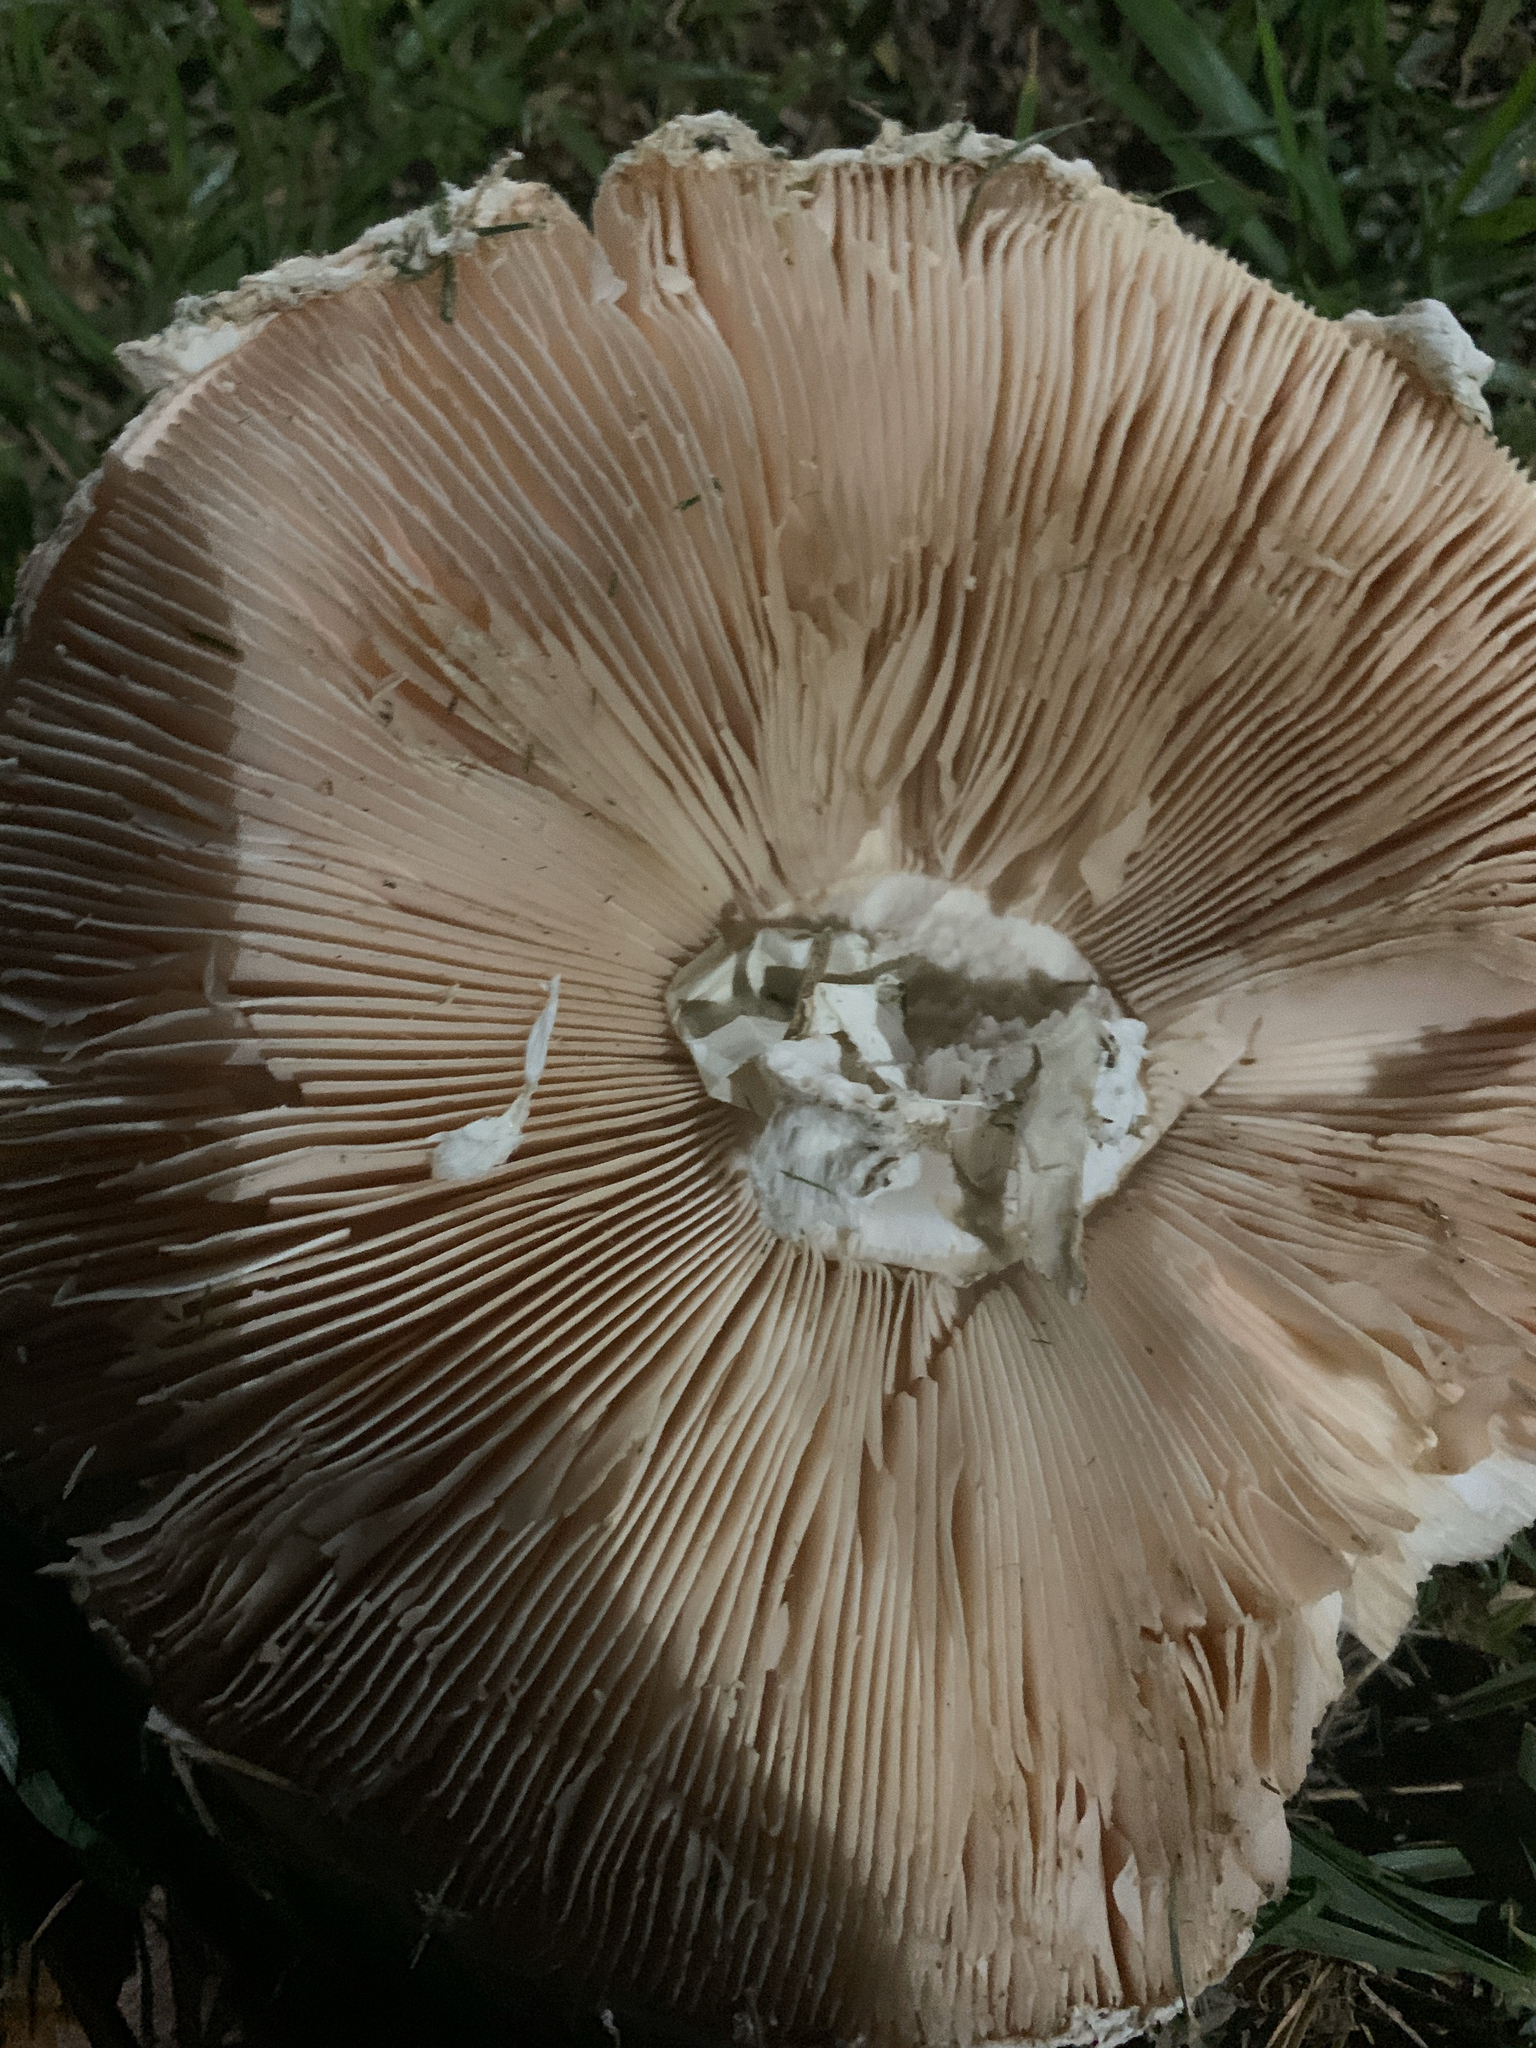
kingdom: Fungi
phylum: Basidiomycota
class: Agaricomycetes
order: Agaricales
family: Amanitaceae
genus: Amanita
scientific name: Amanita foetidissima
